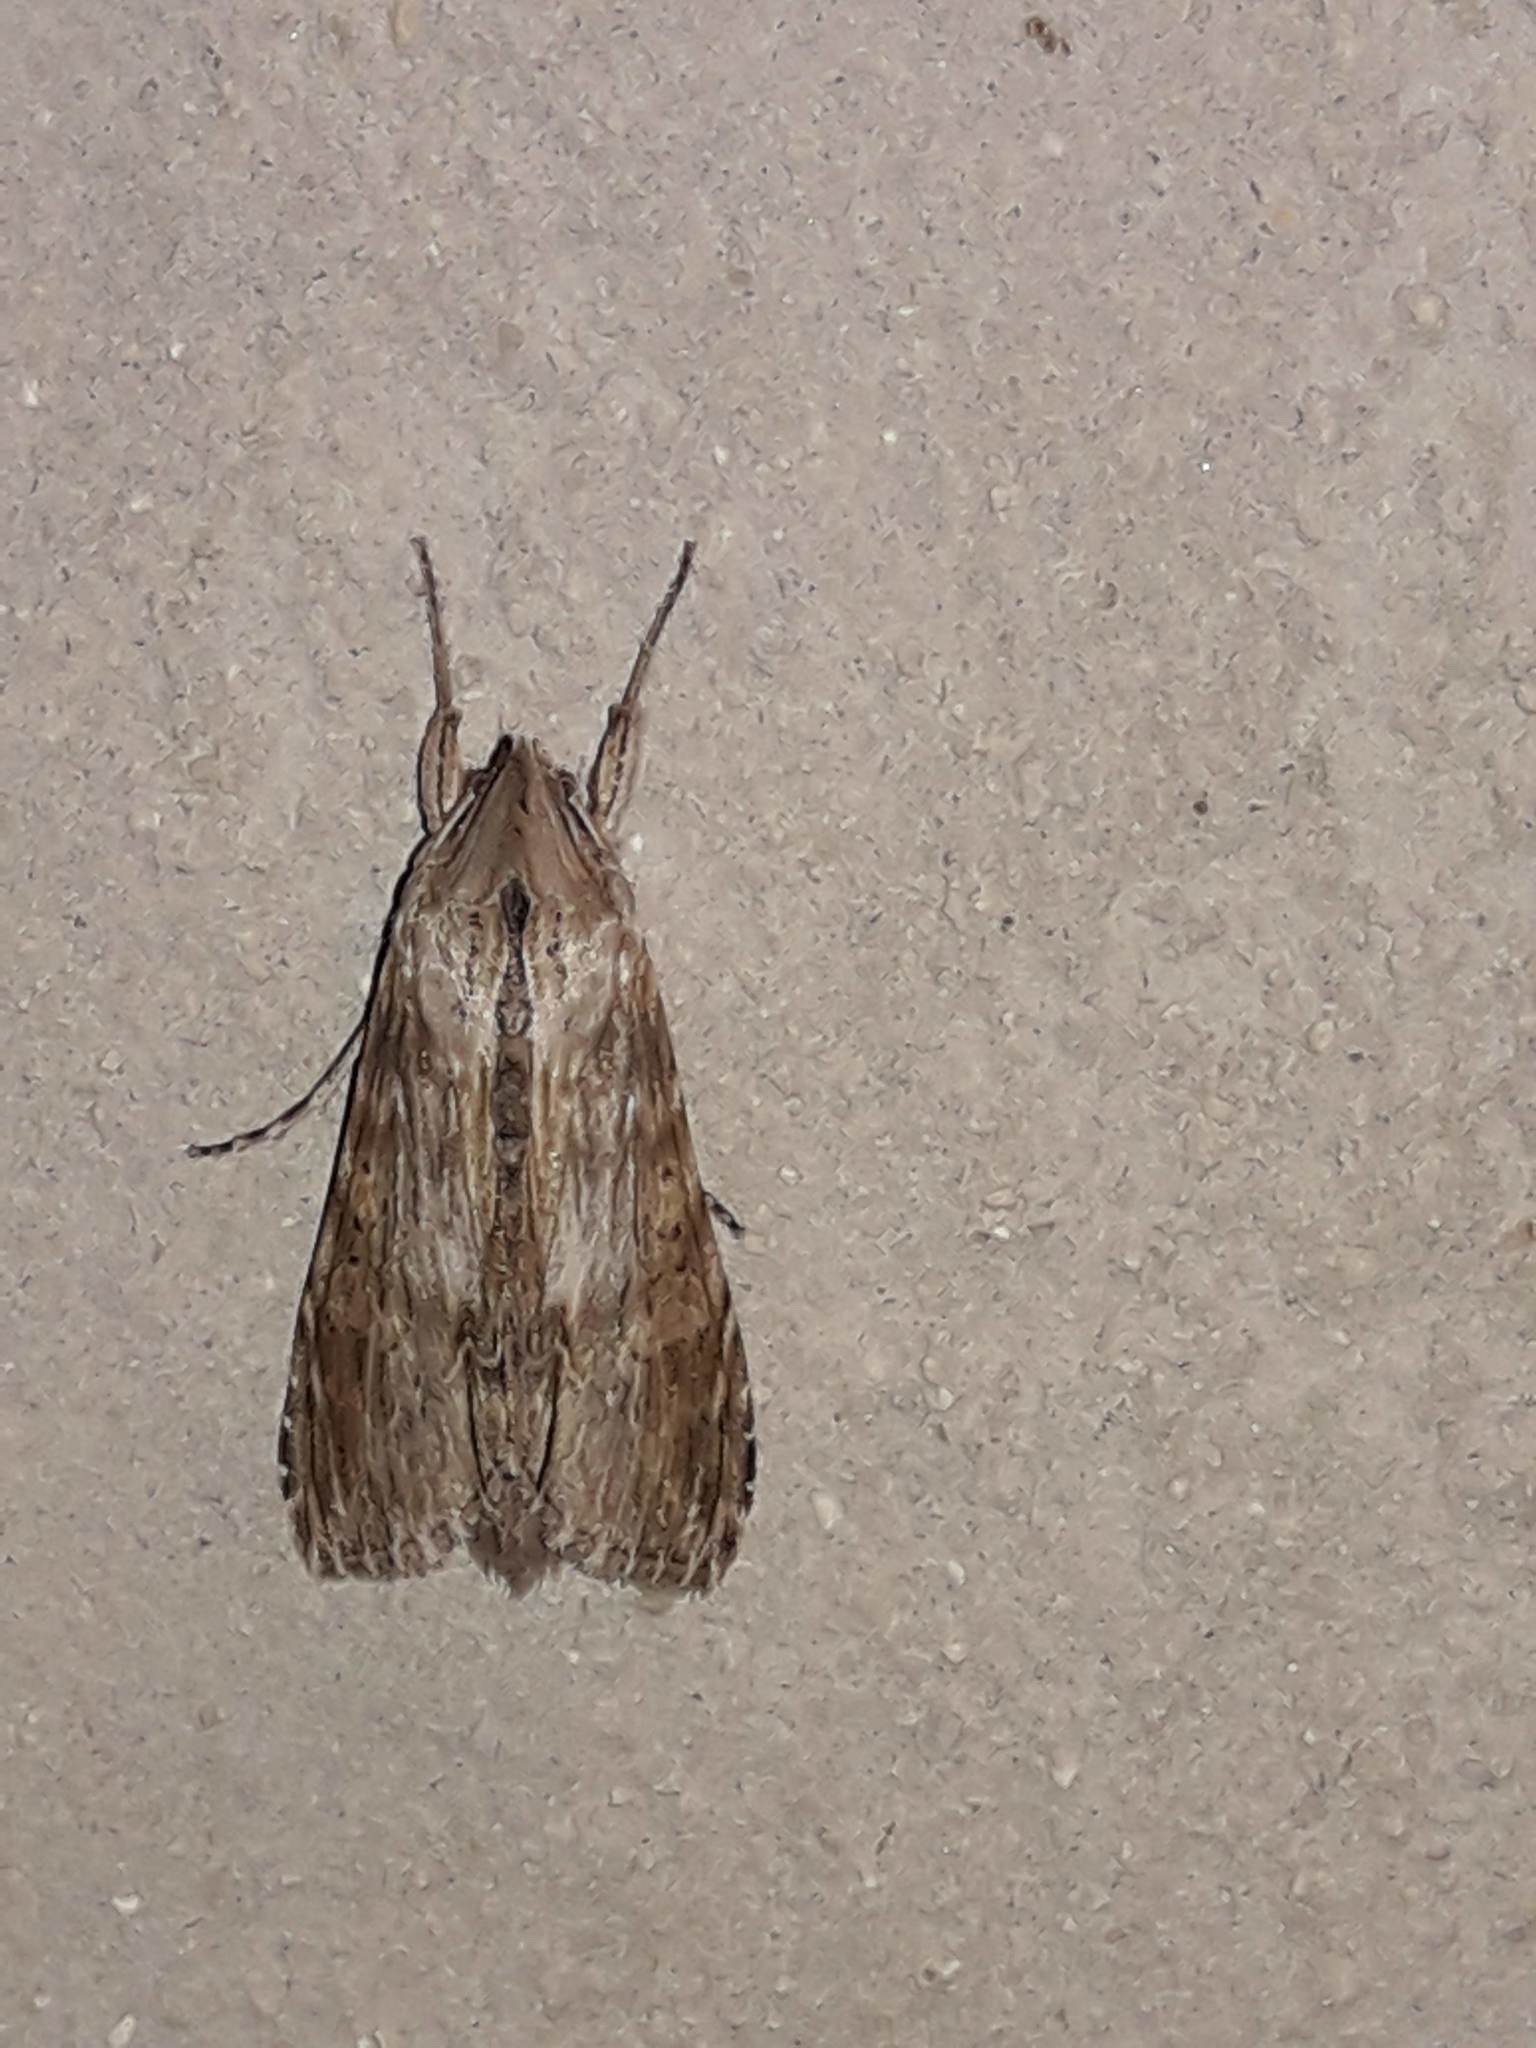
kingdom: Animalia
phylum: Arthropoda
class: Insecta
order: Lepidoptera
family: Noctuidae
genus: Cucullia
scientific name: Cucullia costaricensis
